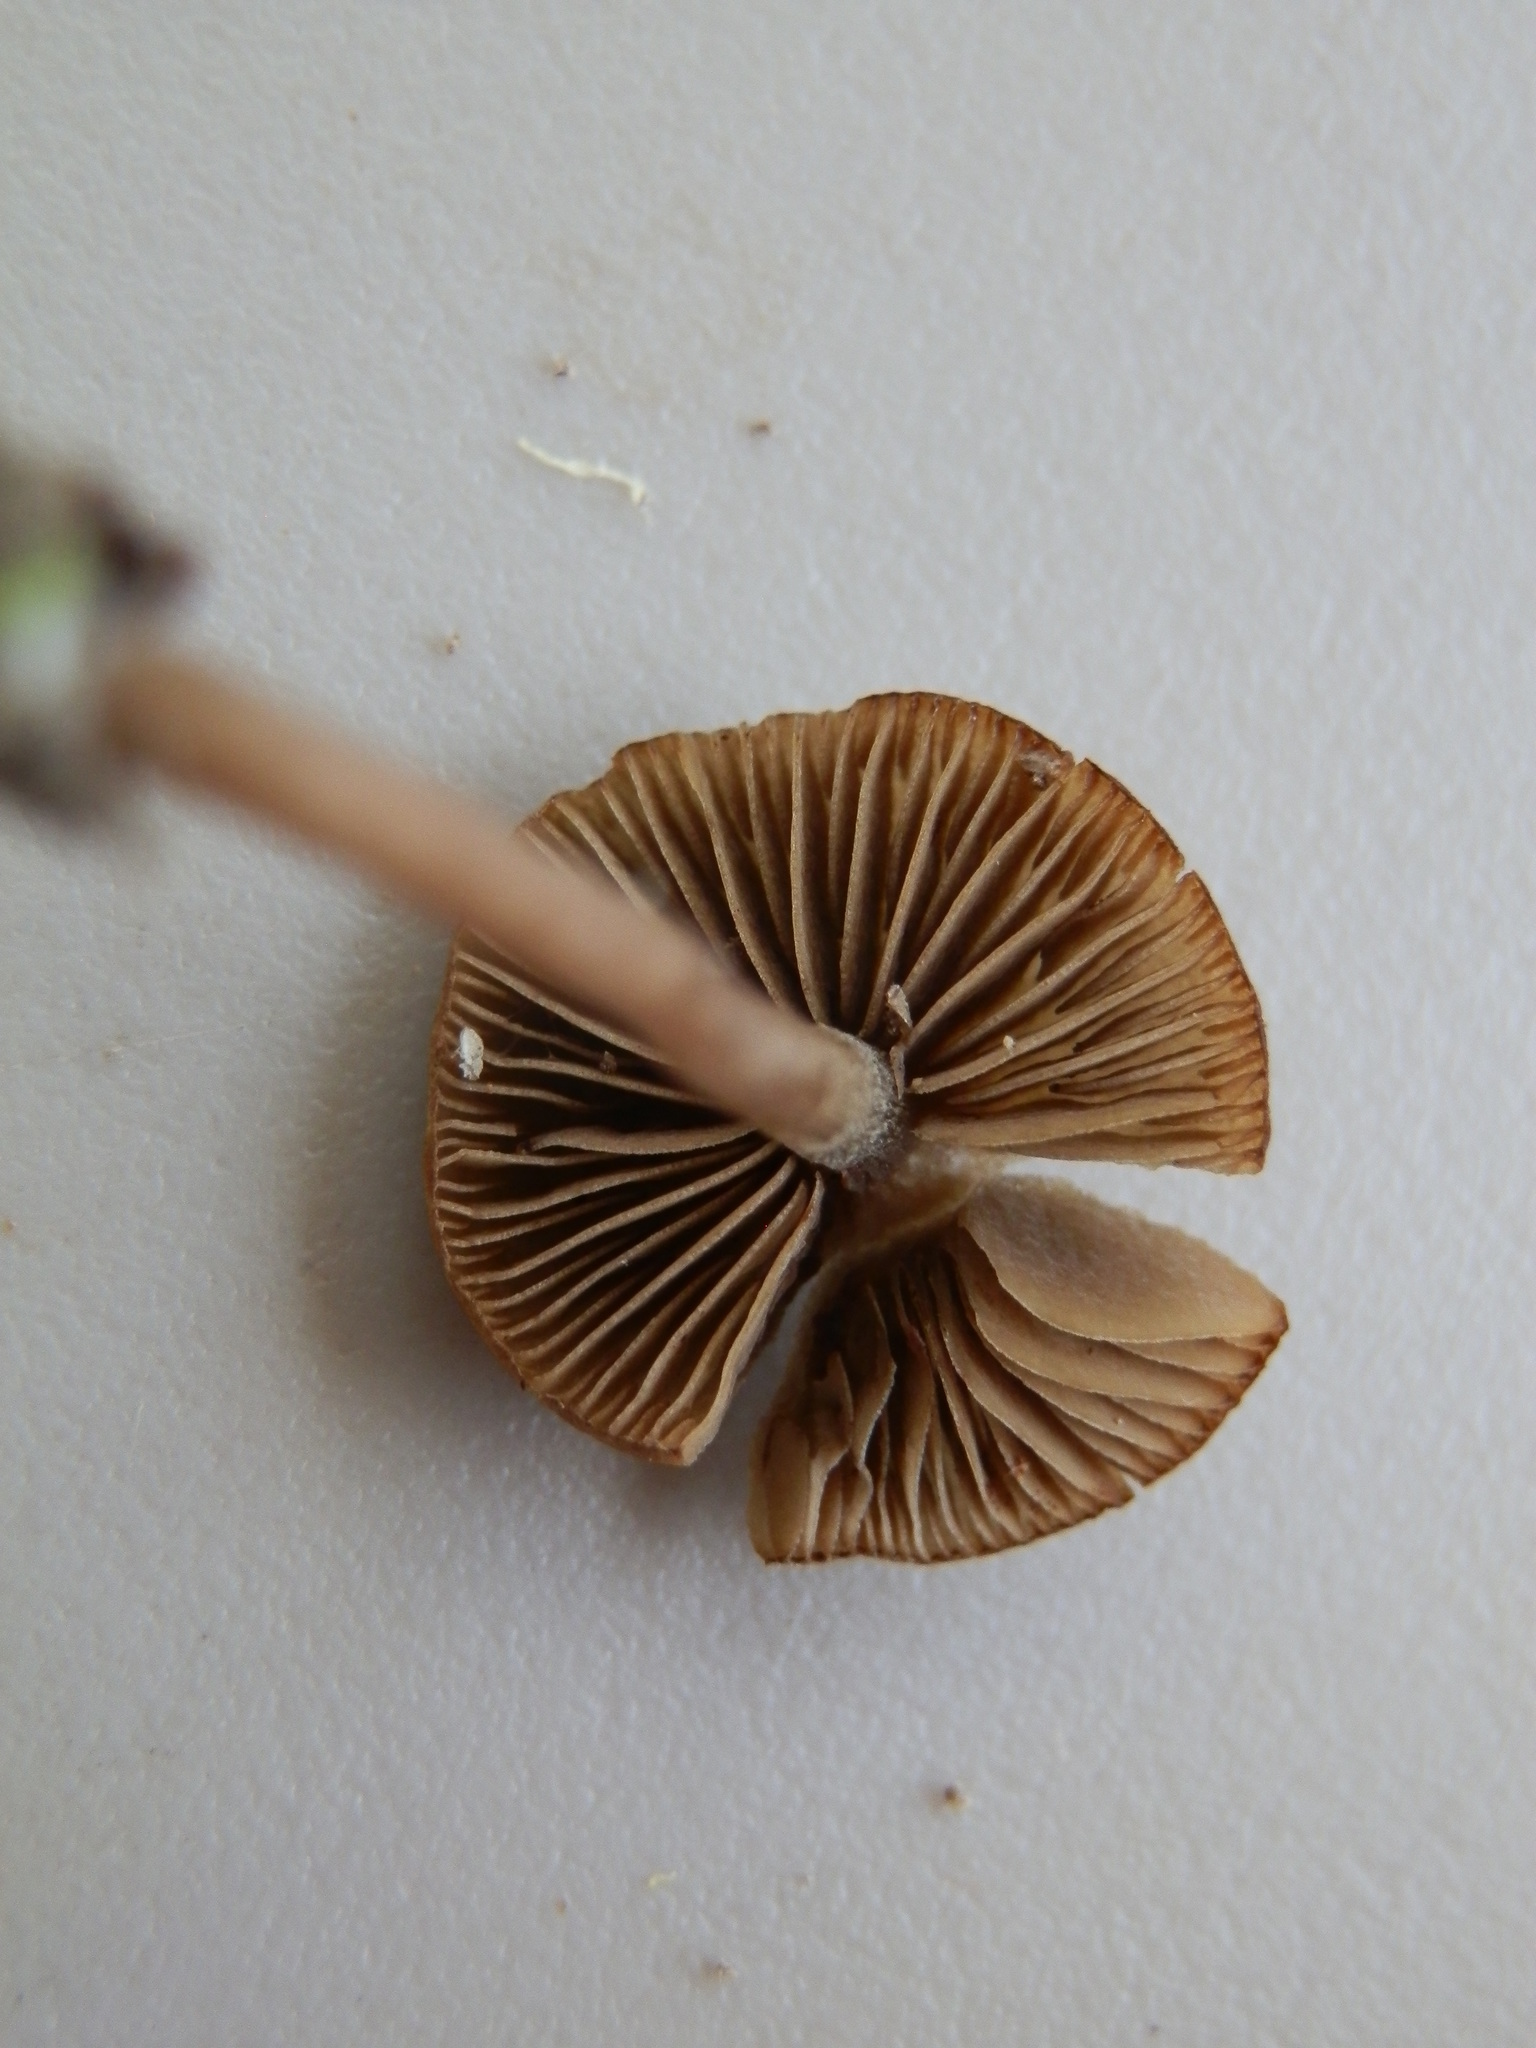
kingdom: Fungi
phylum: Basidiomycota
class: Agaricomycetes
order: Agaricales
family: Entolomataceae
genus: Entoloma
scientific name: Entoloma sericeum
